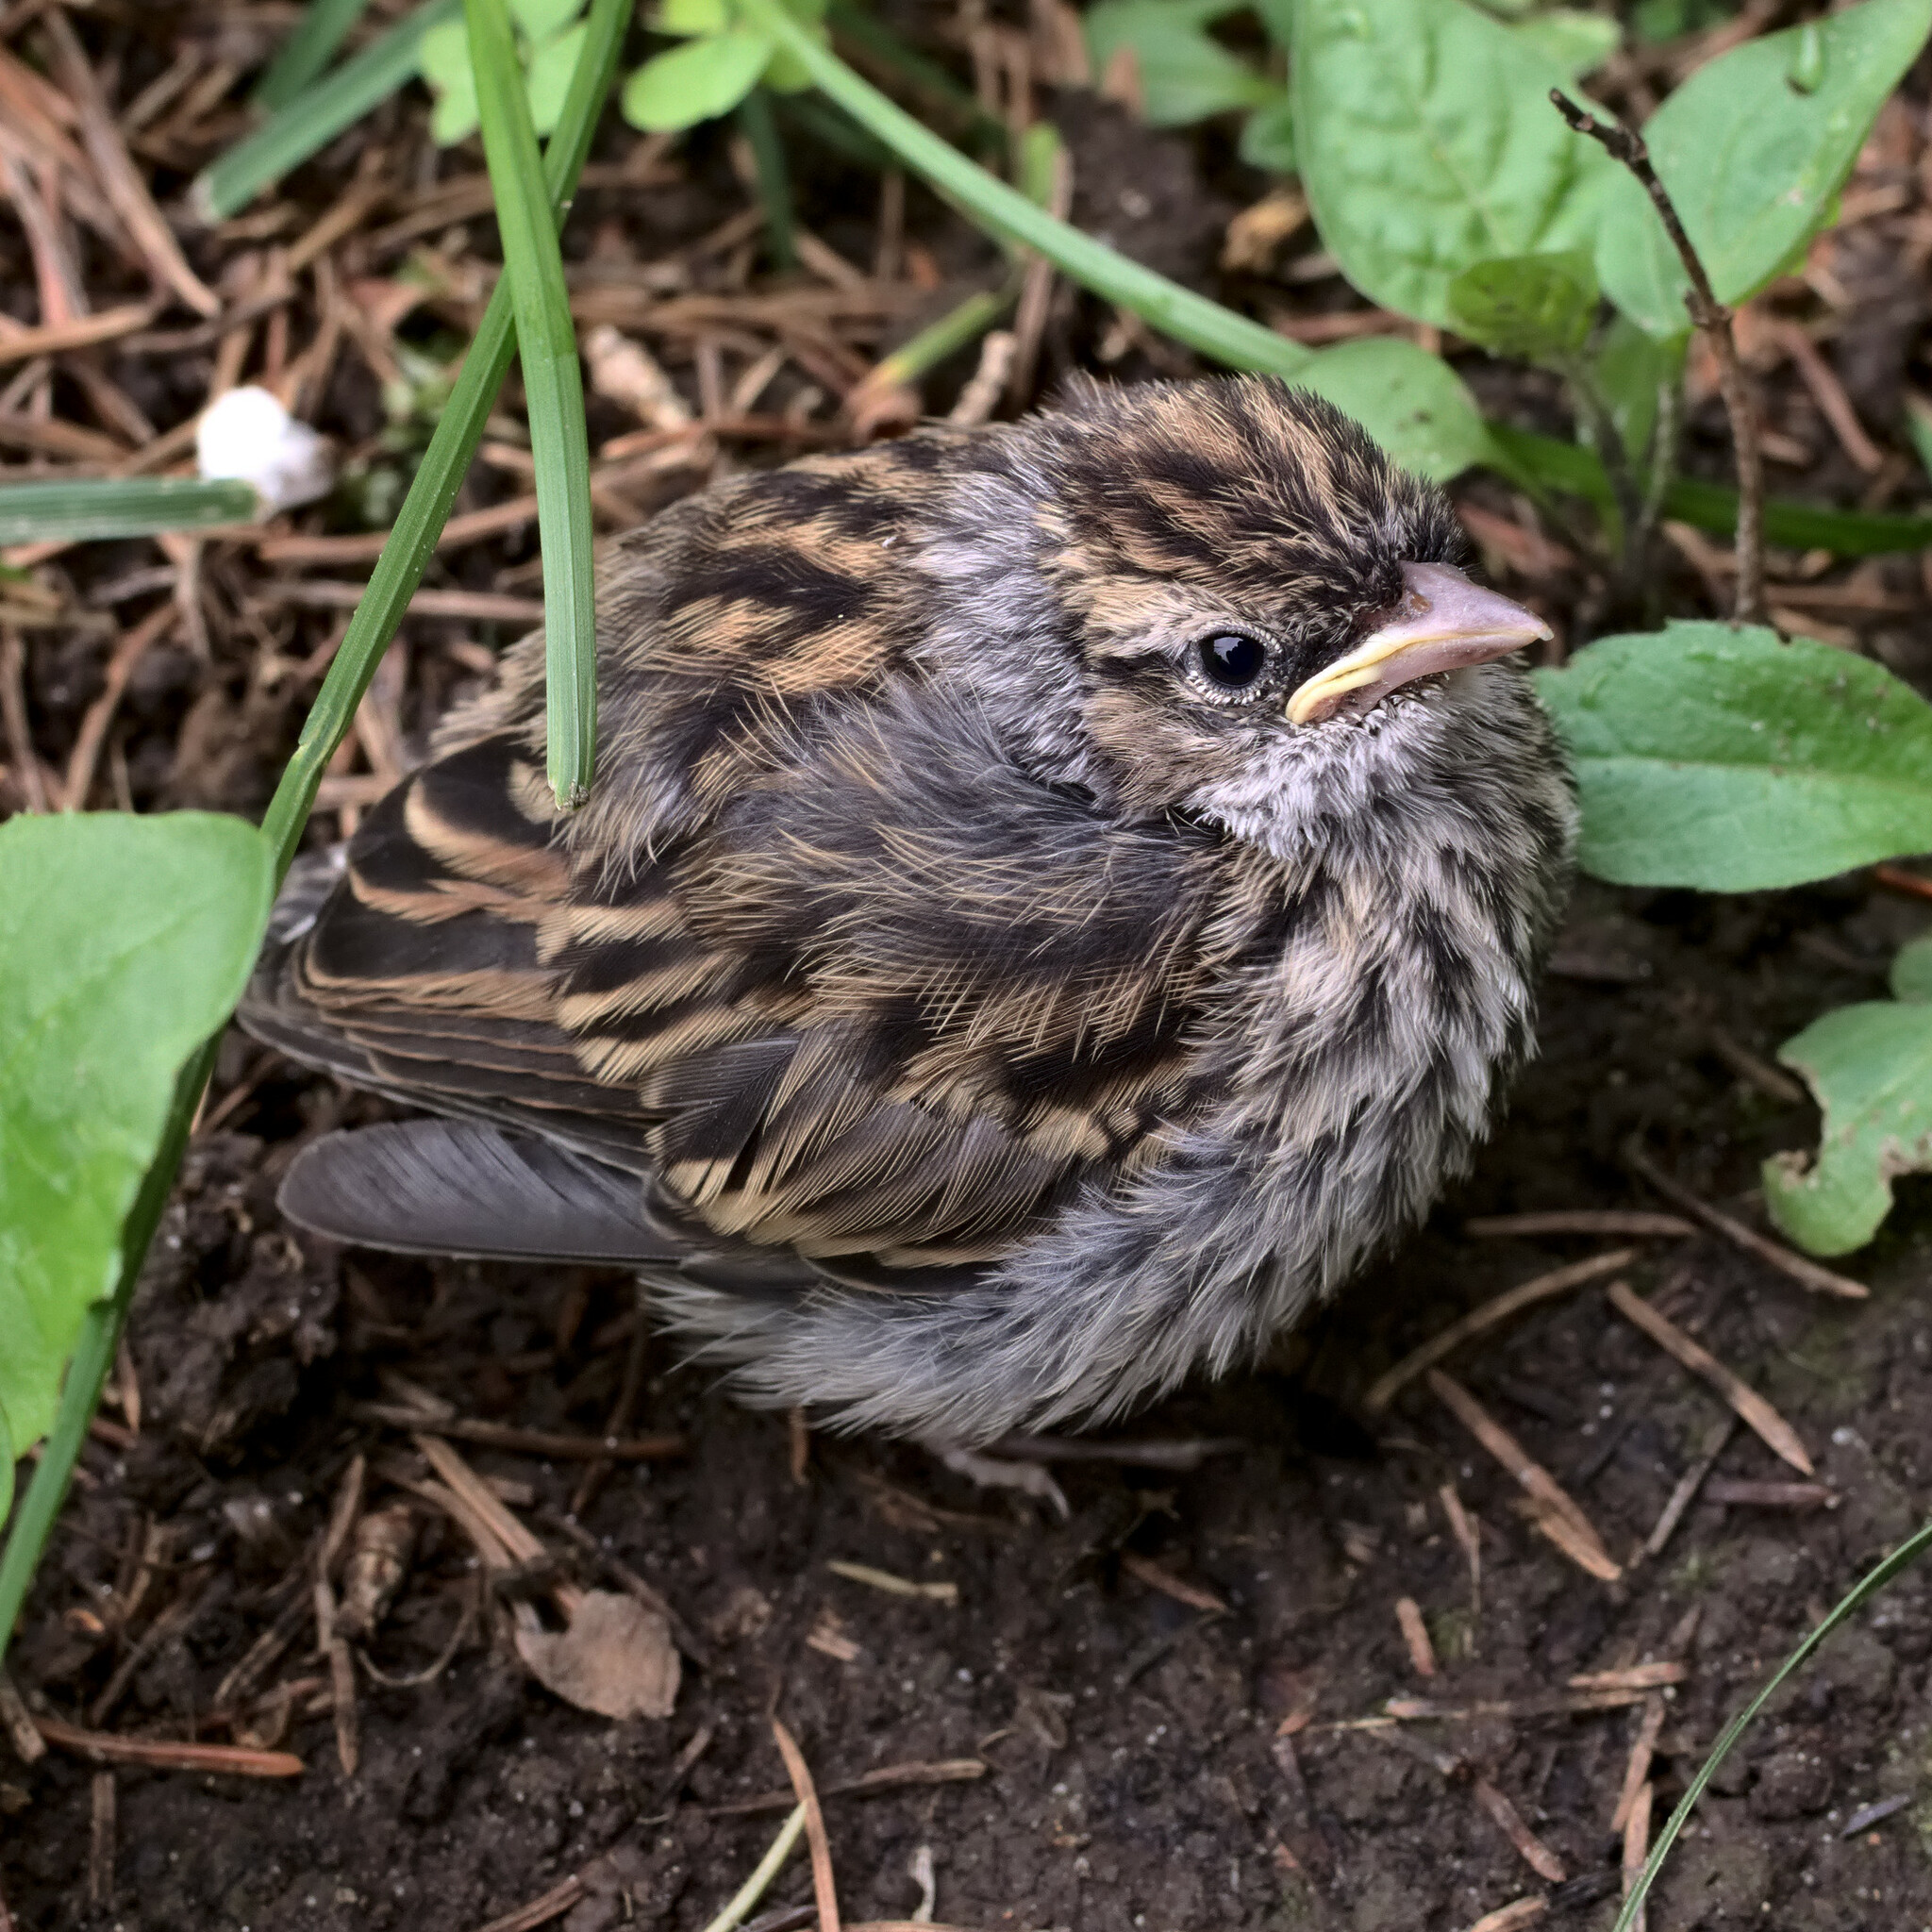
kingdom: Animalia
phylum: Chordata
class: Aves
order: Passeriformes
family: Passerellidae
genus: Spizella
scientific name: Spizella passerina
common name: Chipping sparrow
